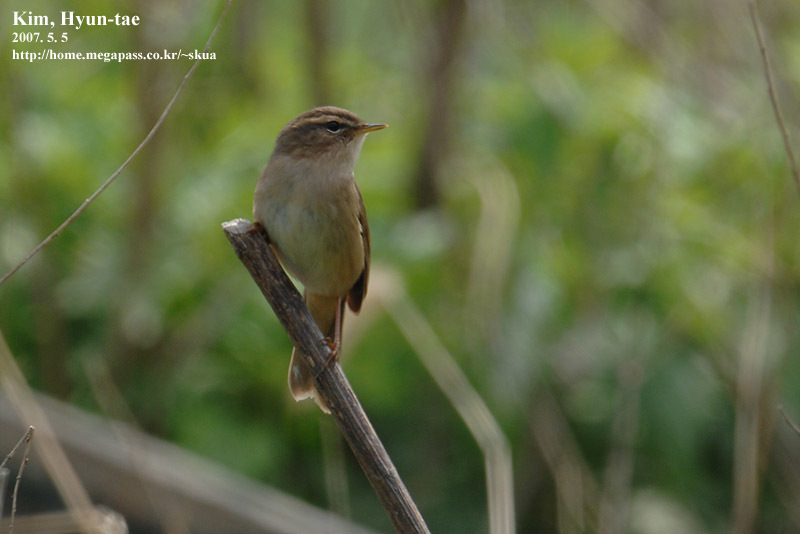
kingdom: Animalia
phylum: Chordata
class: Aves
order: Passeriformes
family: Phylloscopidae
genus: Phylloscopus
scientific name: Phylloscopus fuscatus
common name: Dusky warbler
